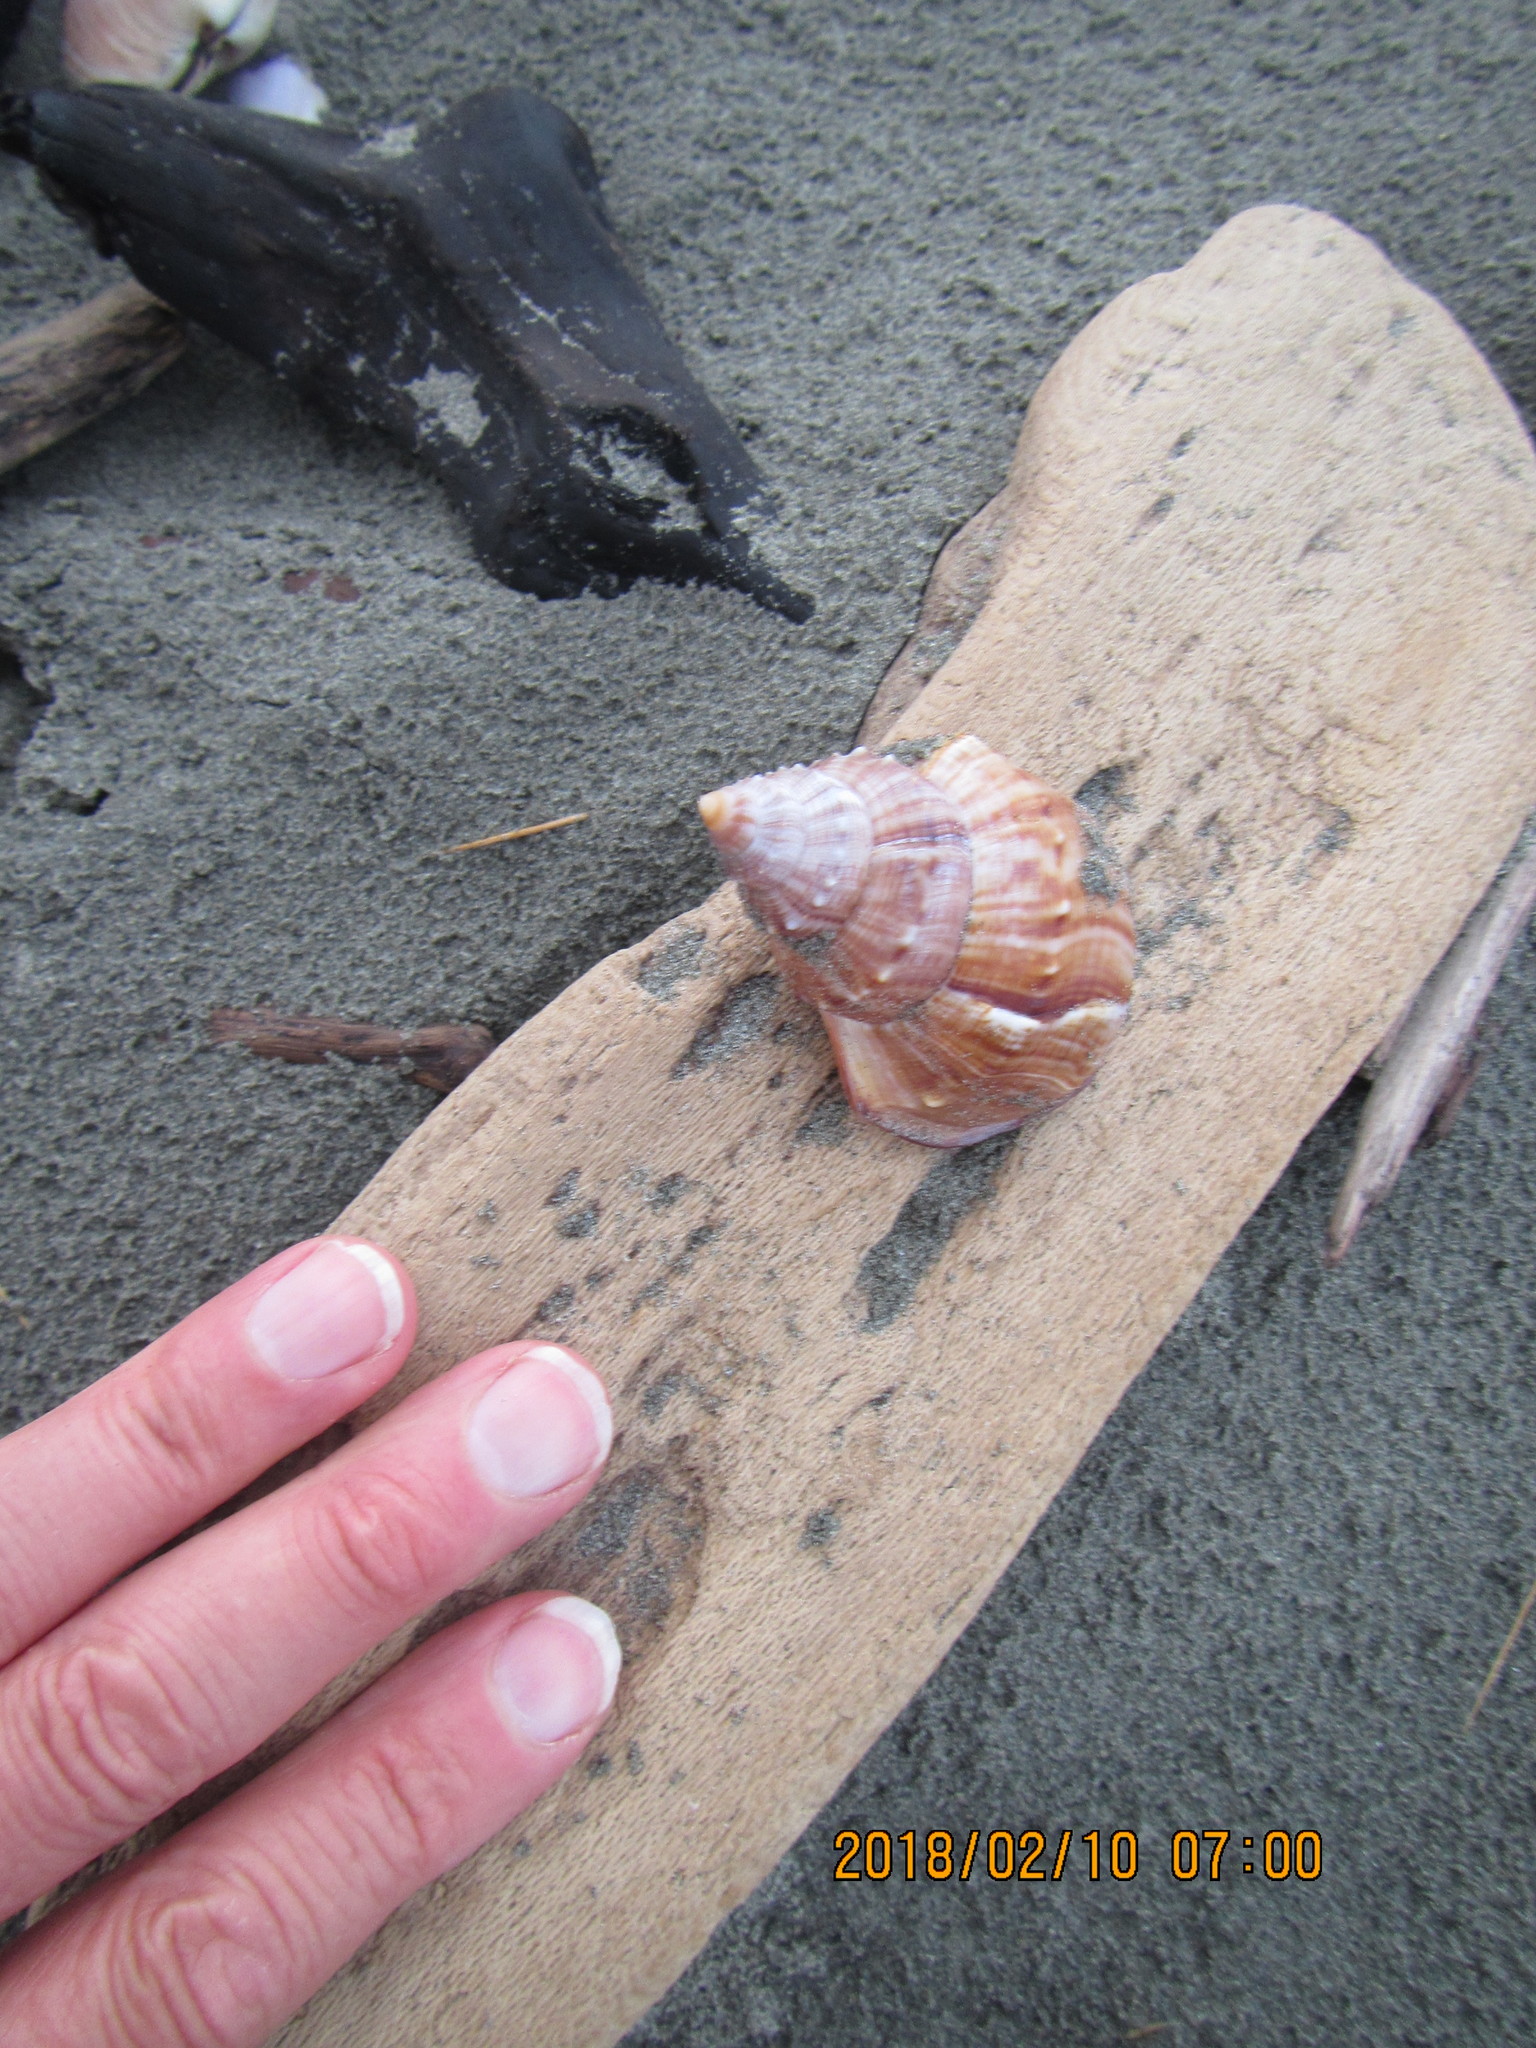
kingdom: Animalia
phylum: Mollusca
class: Gastropoda
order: Littorinimorpha
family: Struthiolariidae
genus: Struthiolaria
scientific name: Struthiolaria papulosa
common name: Large ostrich foot
